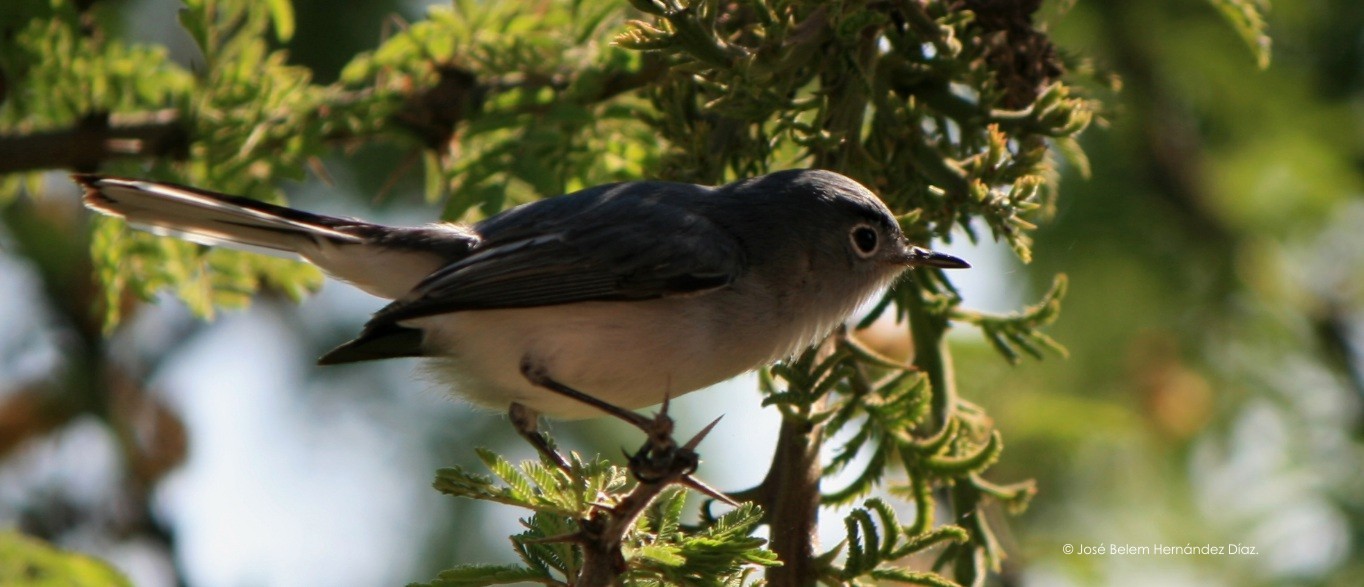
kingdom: Animalia
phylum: Chordata
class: Aves
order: Passeriformes
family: Polioptilidae
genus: Polioptila
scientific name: Polioptila caerulea
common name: Blue-gray gnatcatcher
